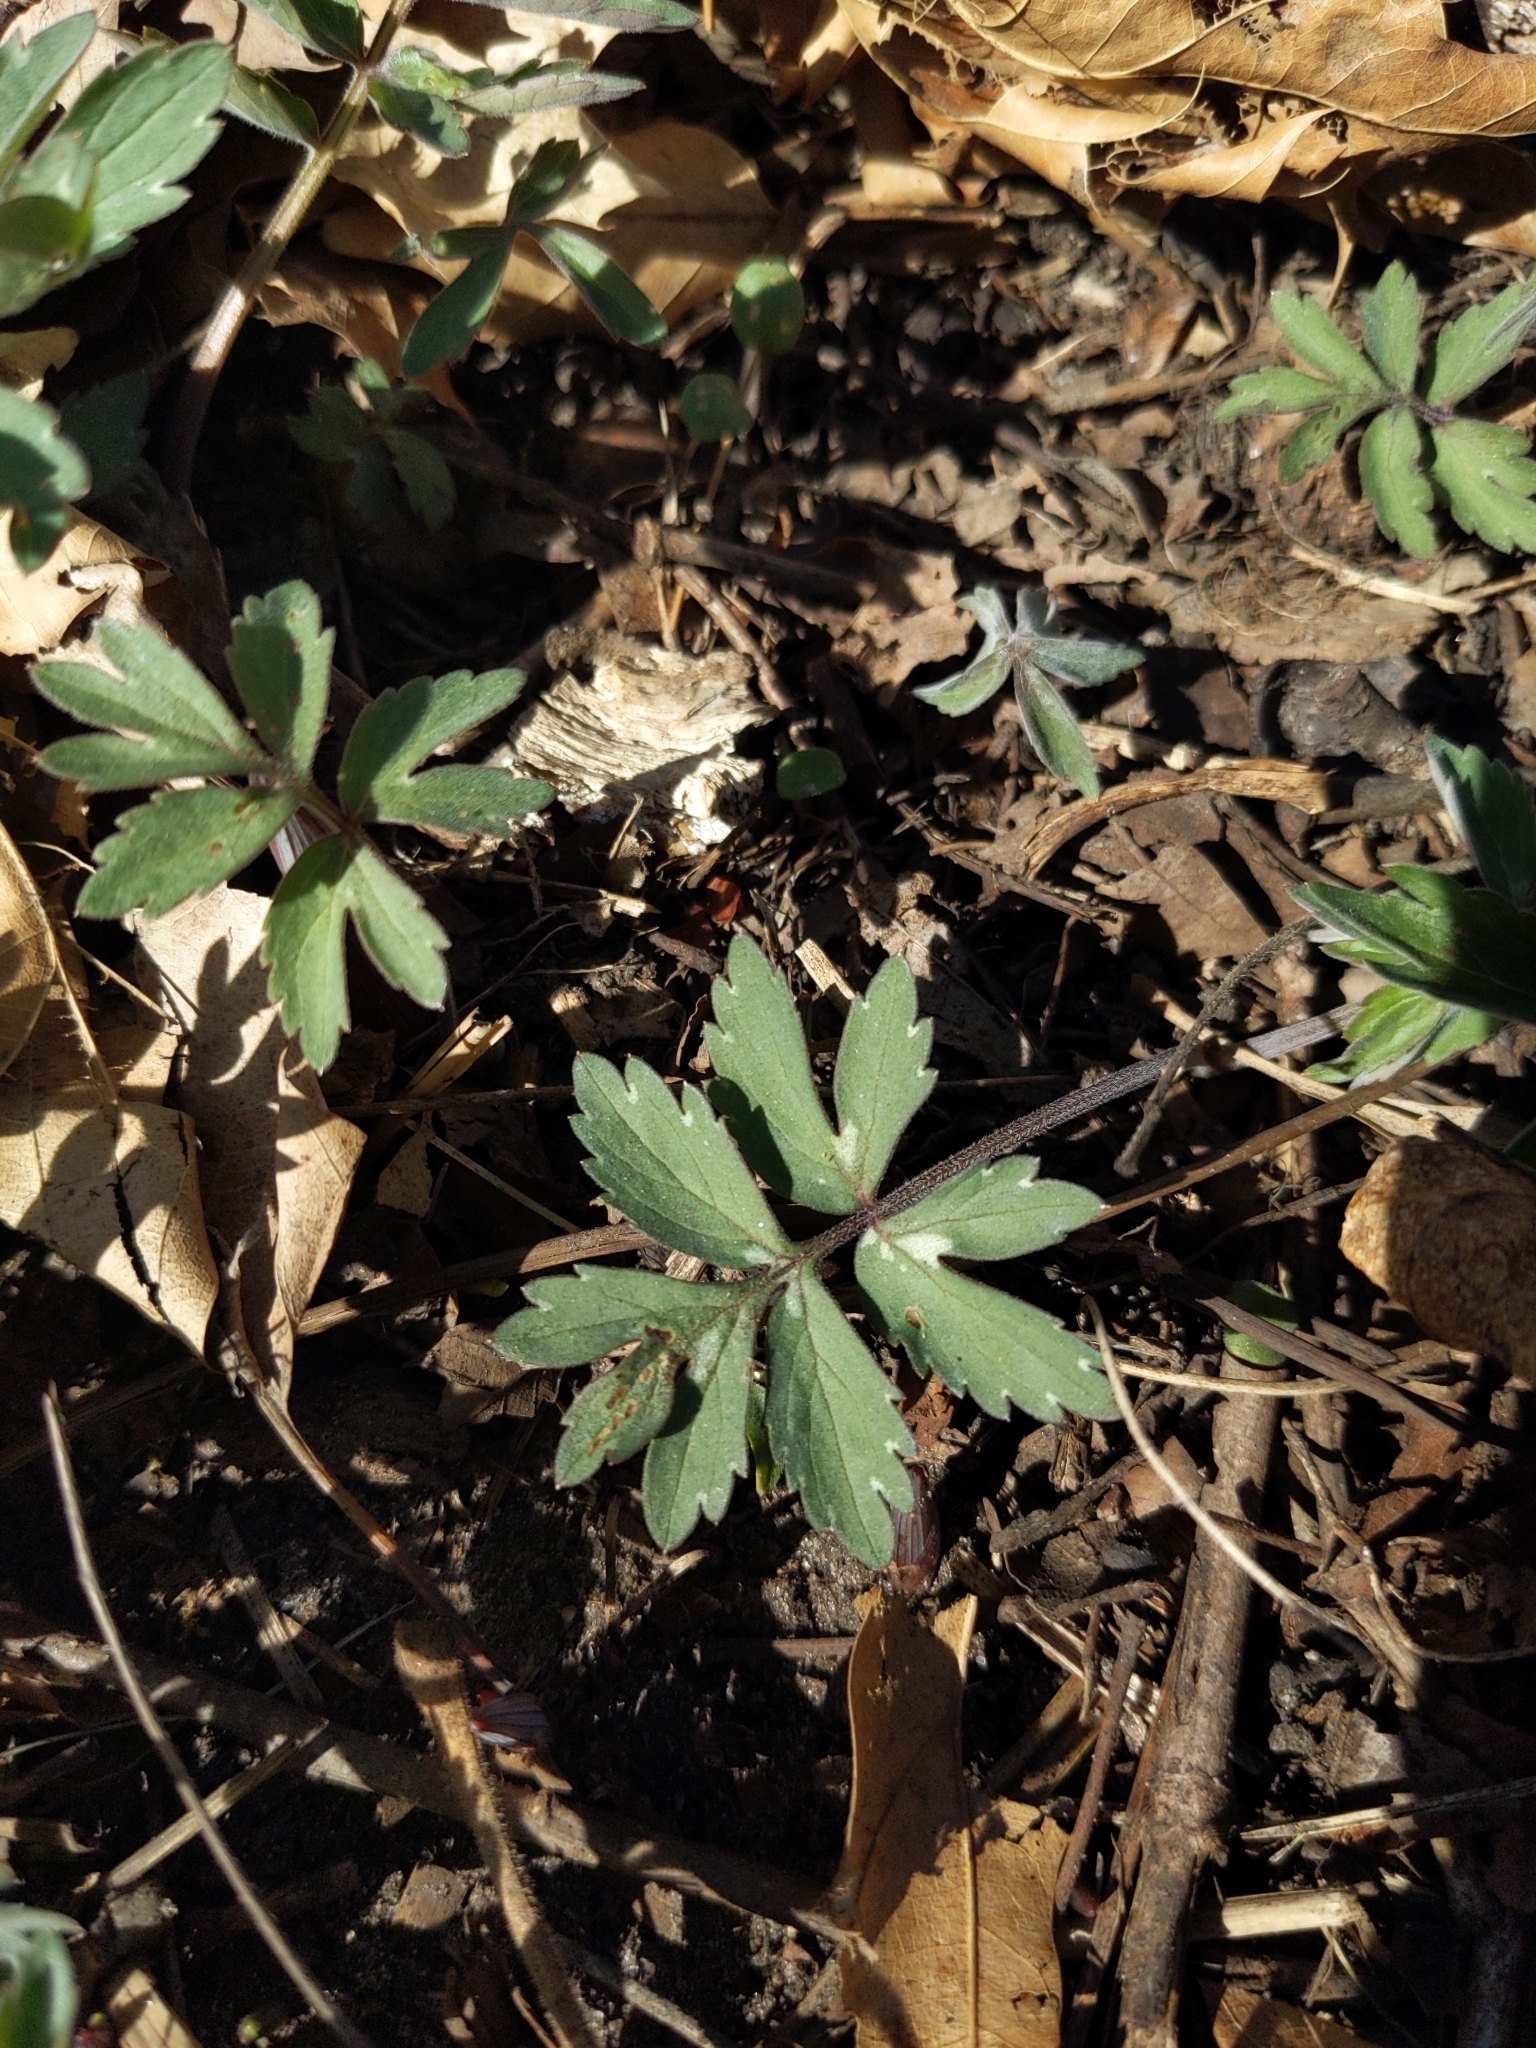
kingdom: Plantae
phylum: Tracheophyta
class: Magnoliopsida
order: Boraginales
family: Hydrophyllaceae
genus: Hydrophyllum
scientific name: Hydrophyllum virginianum
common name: Virginia waterleaf
